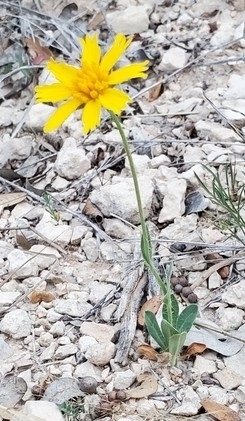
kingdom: Plantae
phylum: Tracheophyta
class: Magnoliopsida
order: Asterales
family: Asteraceae
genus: Amblyolepis
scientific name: Amblyolepis setigera
